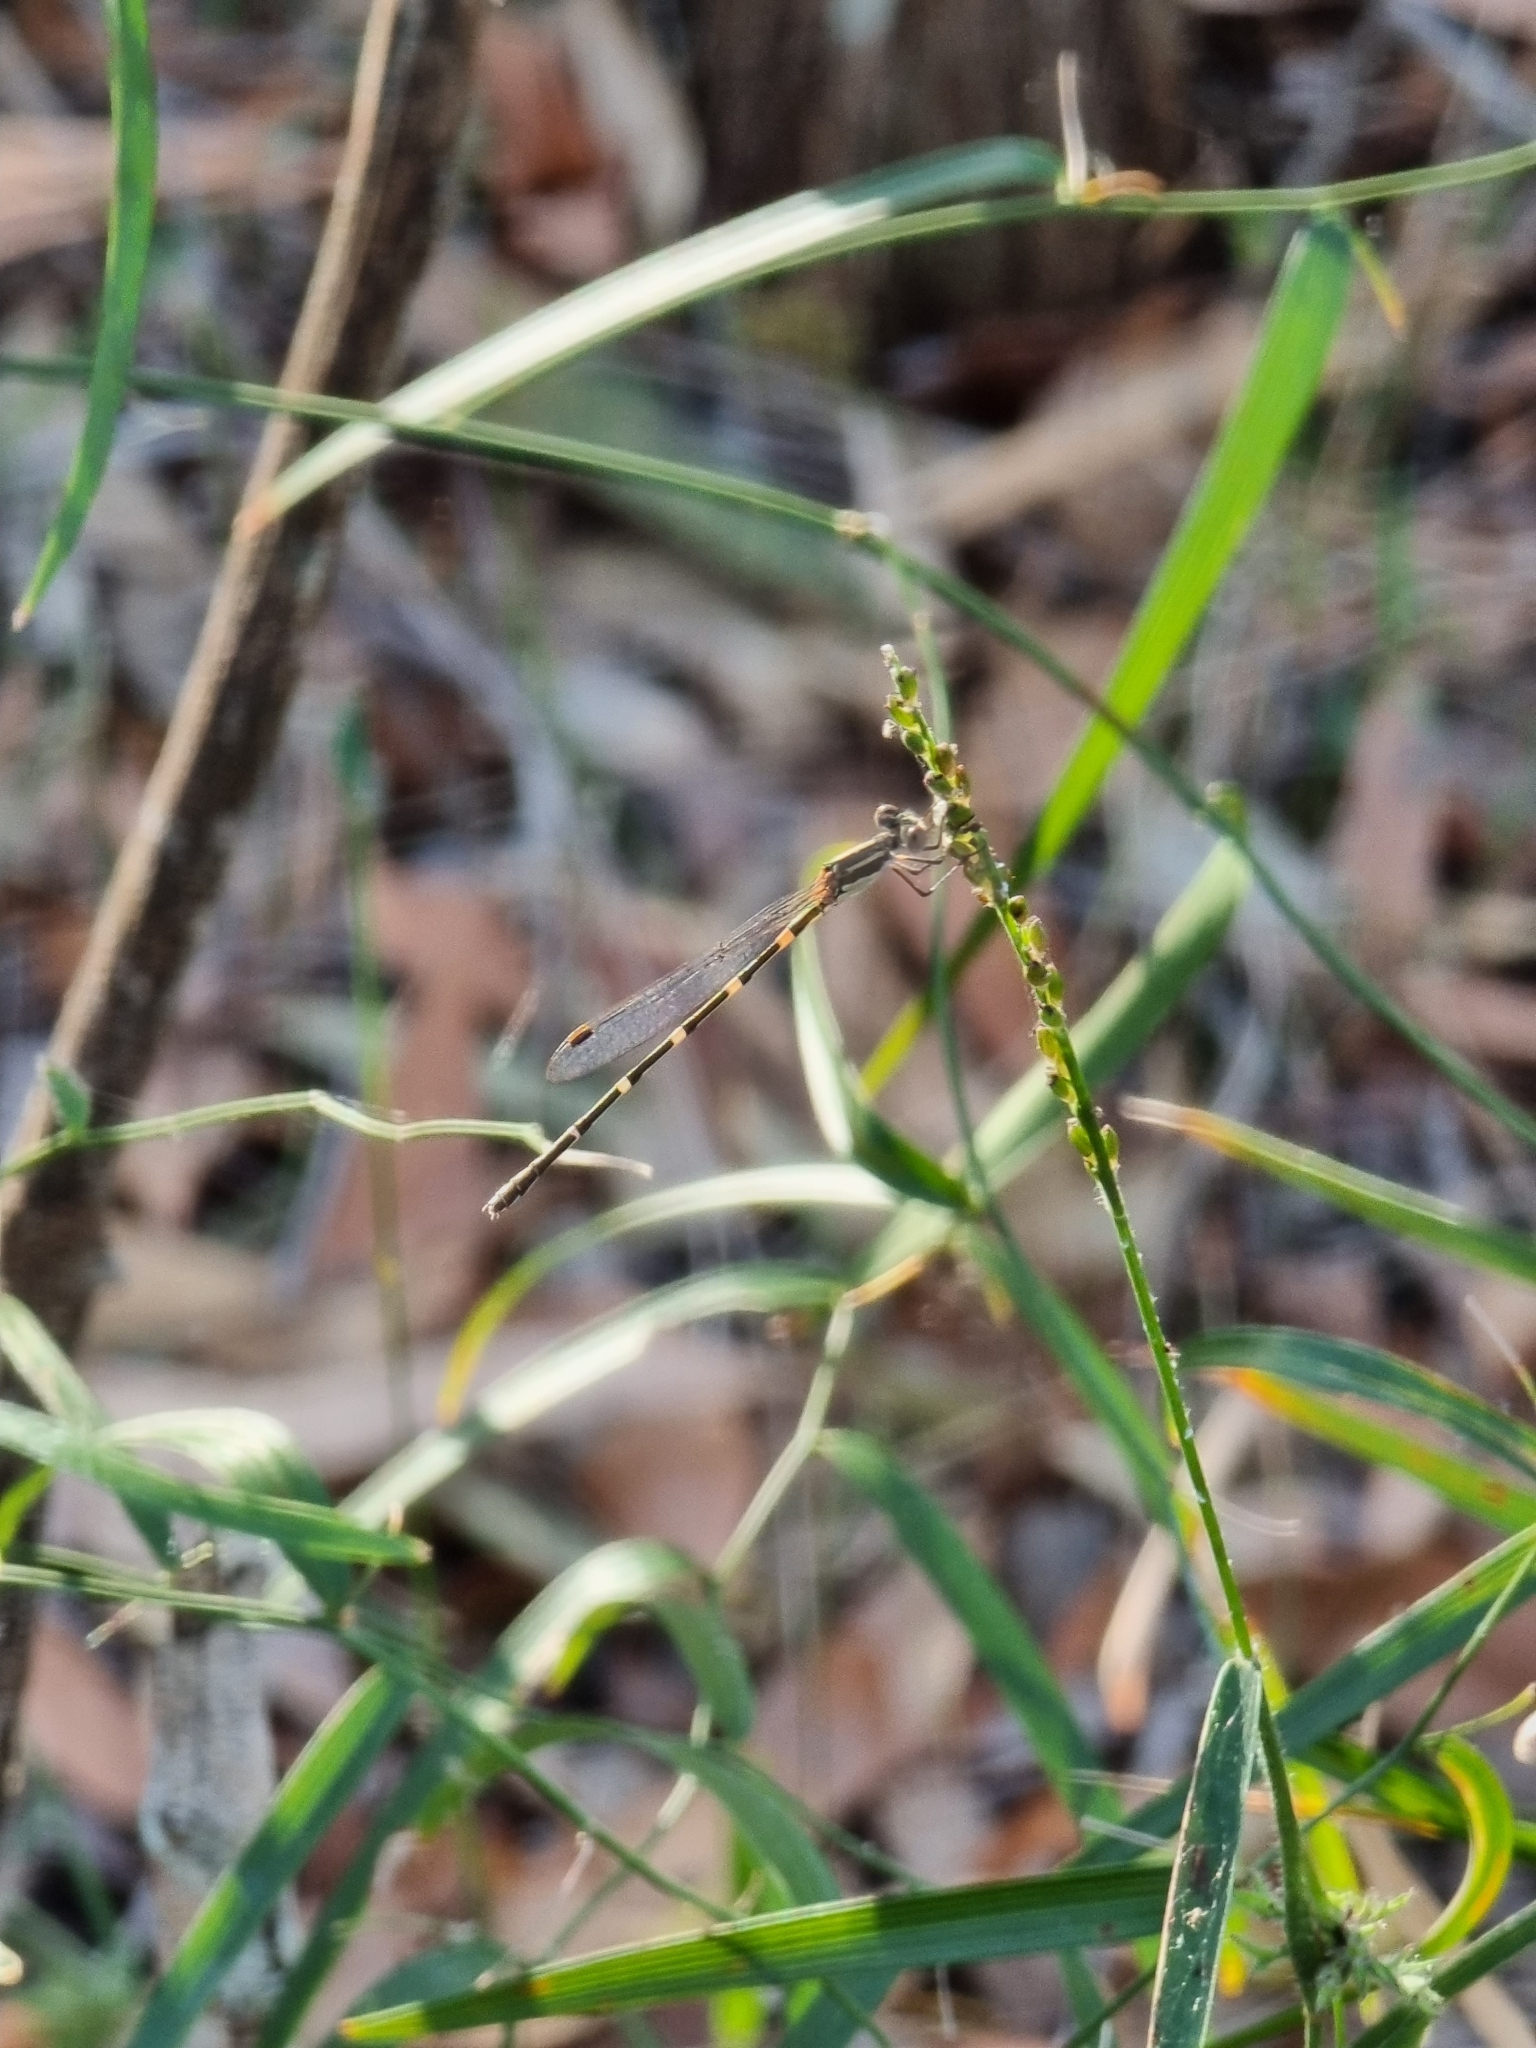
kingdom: Animalia
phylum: Arthropoda
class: Insecta
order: Odonata
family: Lestidae
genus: Austrolestes
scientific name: Austrolestes leda
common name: Wandering ringtail
